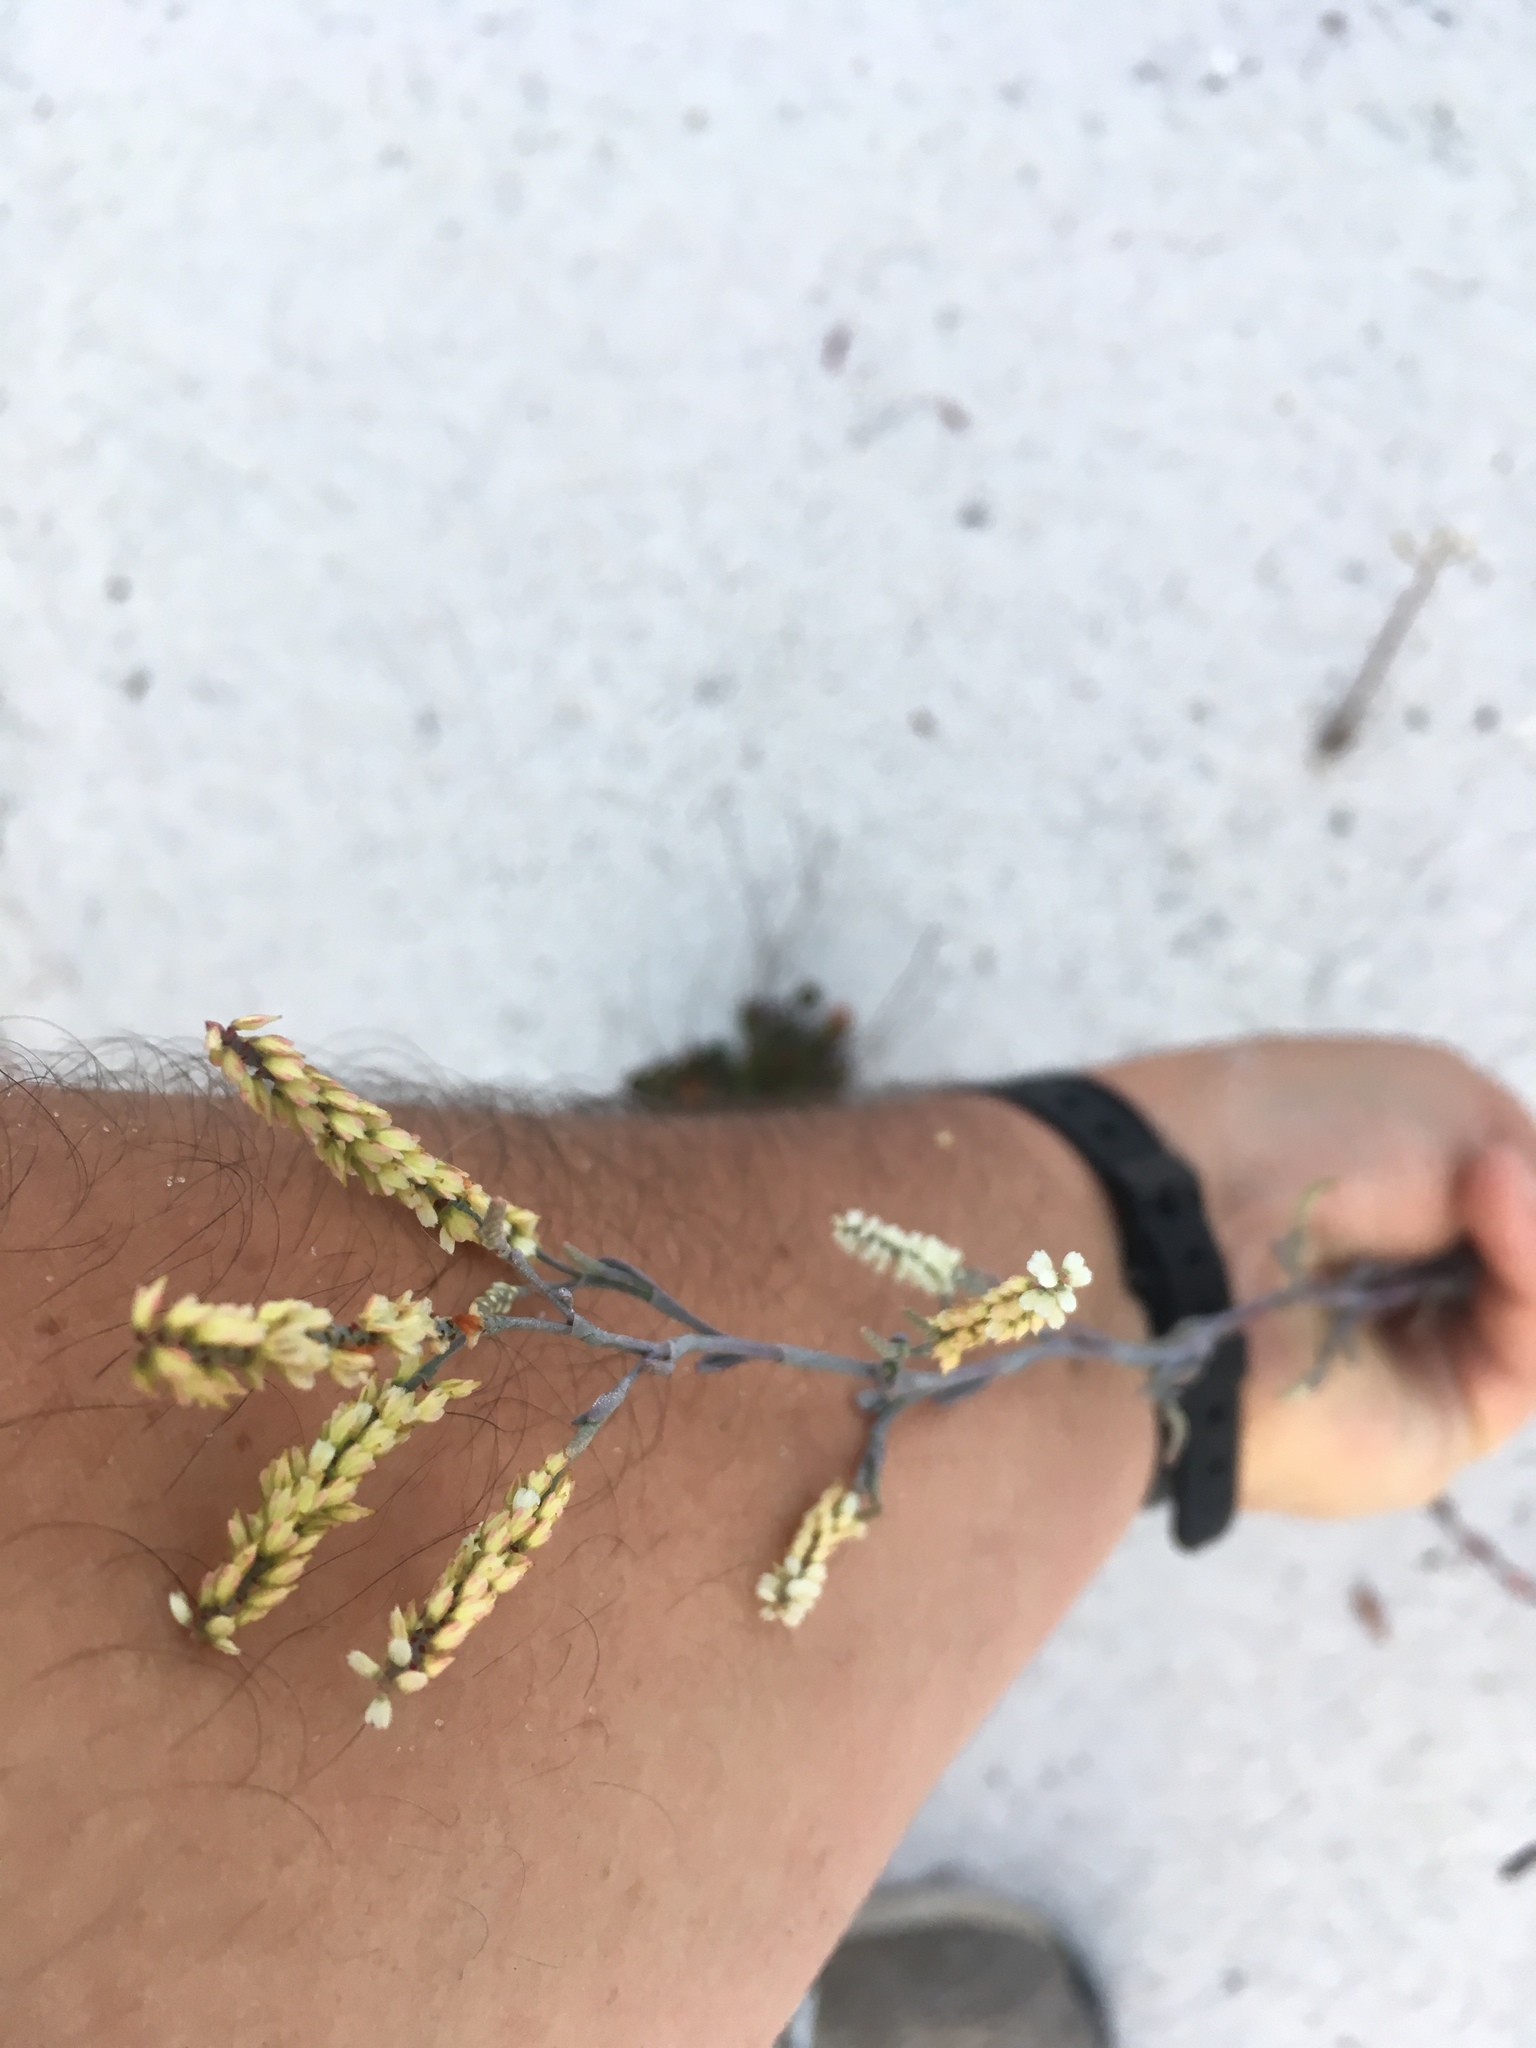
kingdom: Plantae
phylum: Tracheophyta
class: Magnoliopsida
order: Caryophyllales
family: Polygonaceae
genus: Polygonella
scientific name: Polygonella gracilis
